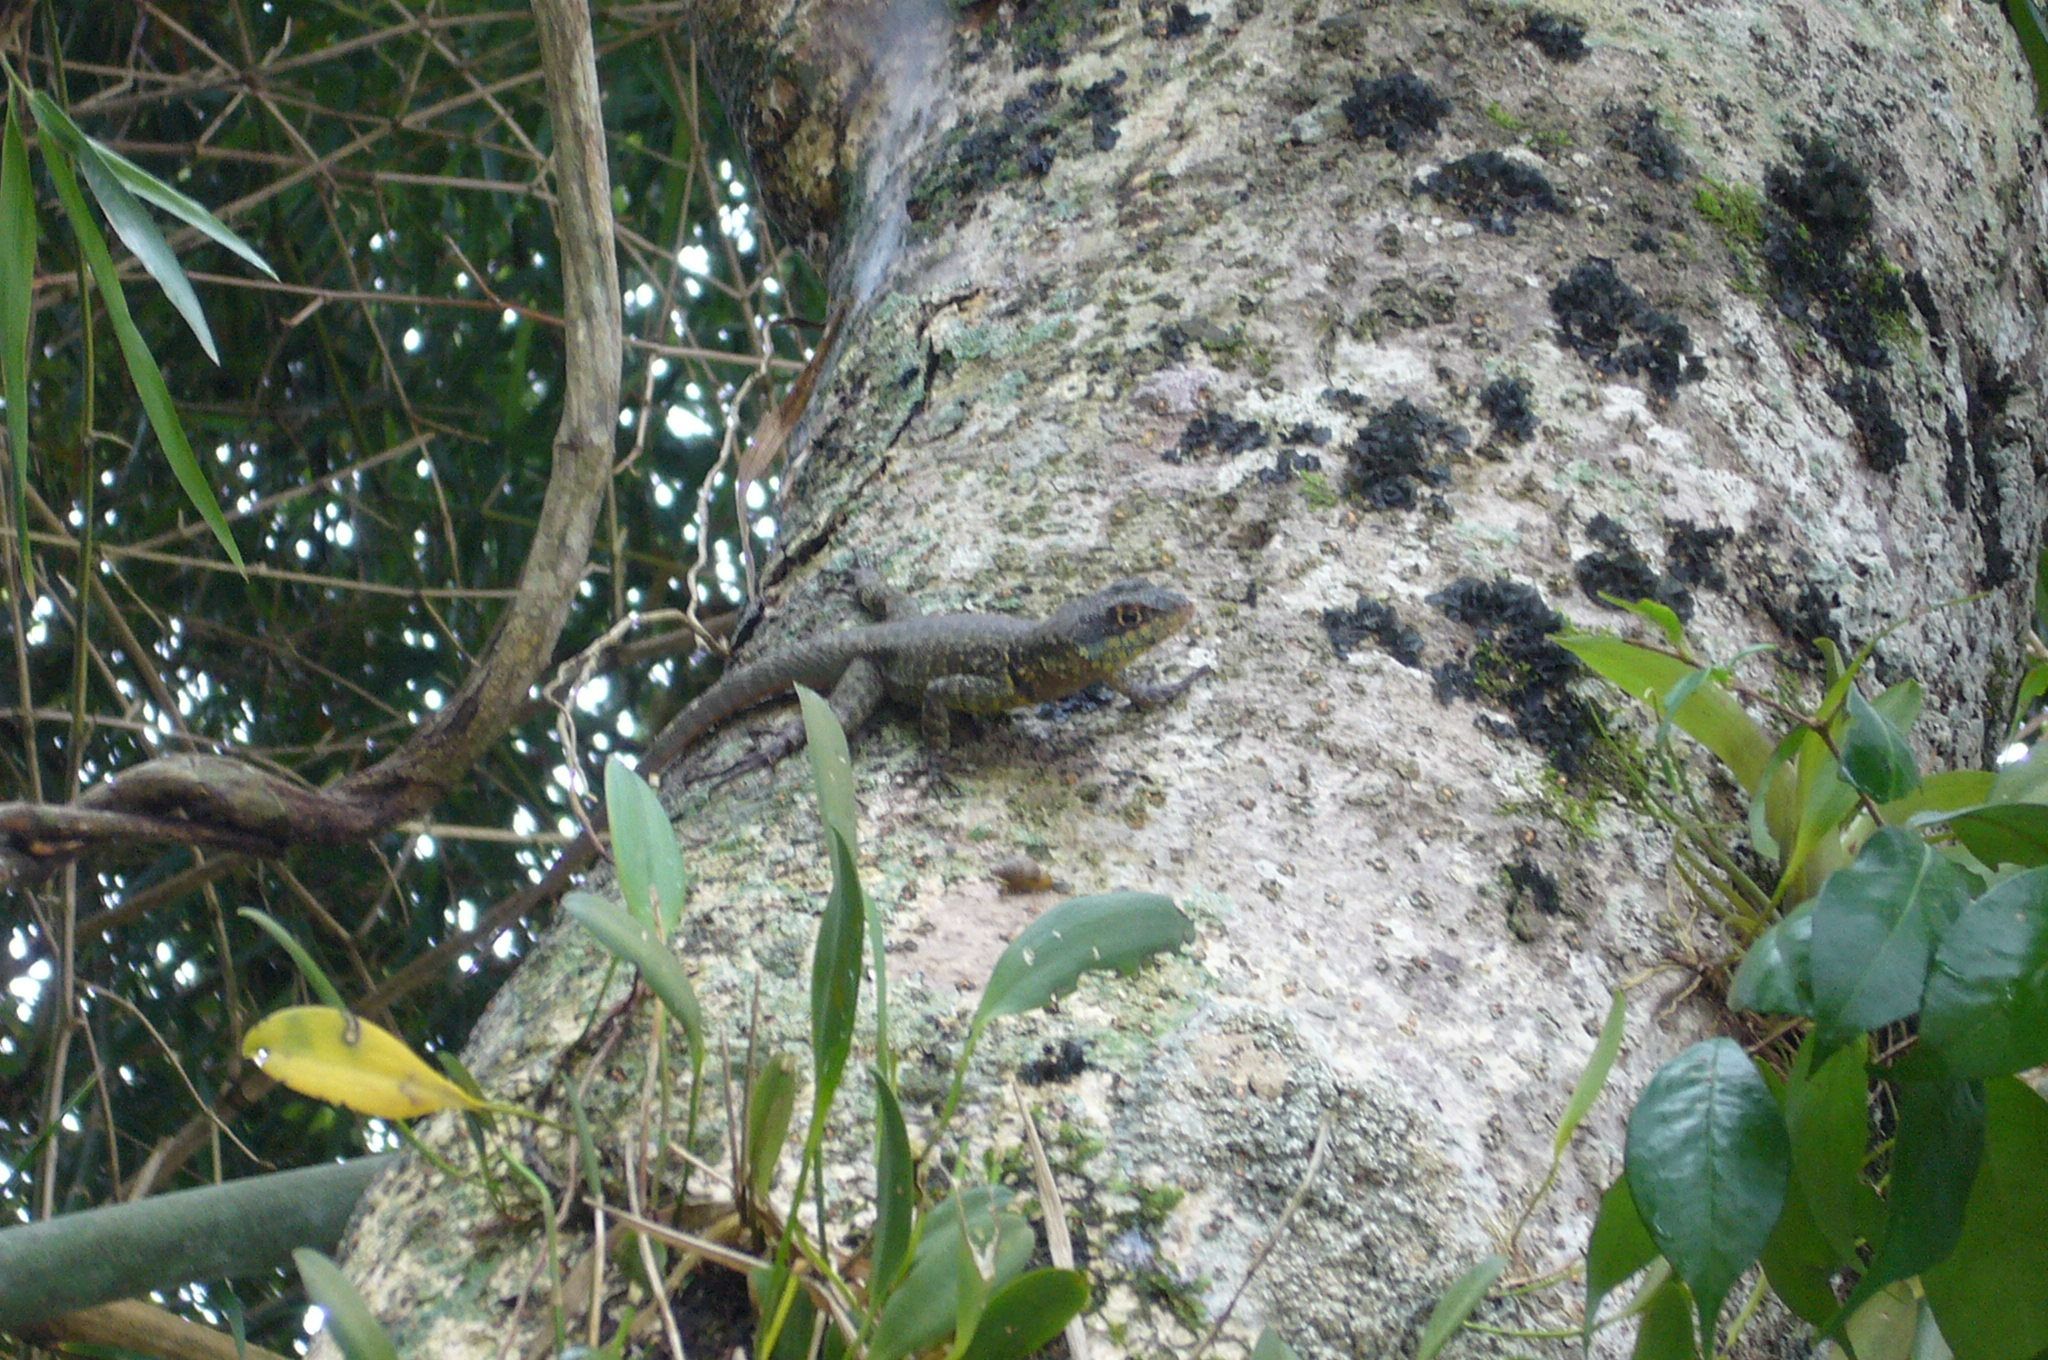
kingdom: Animalia
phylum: Chordata
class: Squamata
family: Tropiduridae
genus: Tropidurus
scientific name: Tropidurus catalanensis
